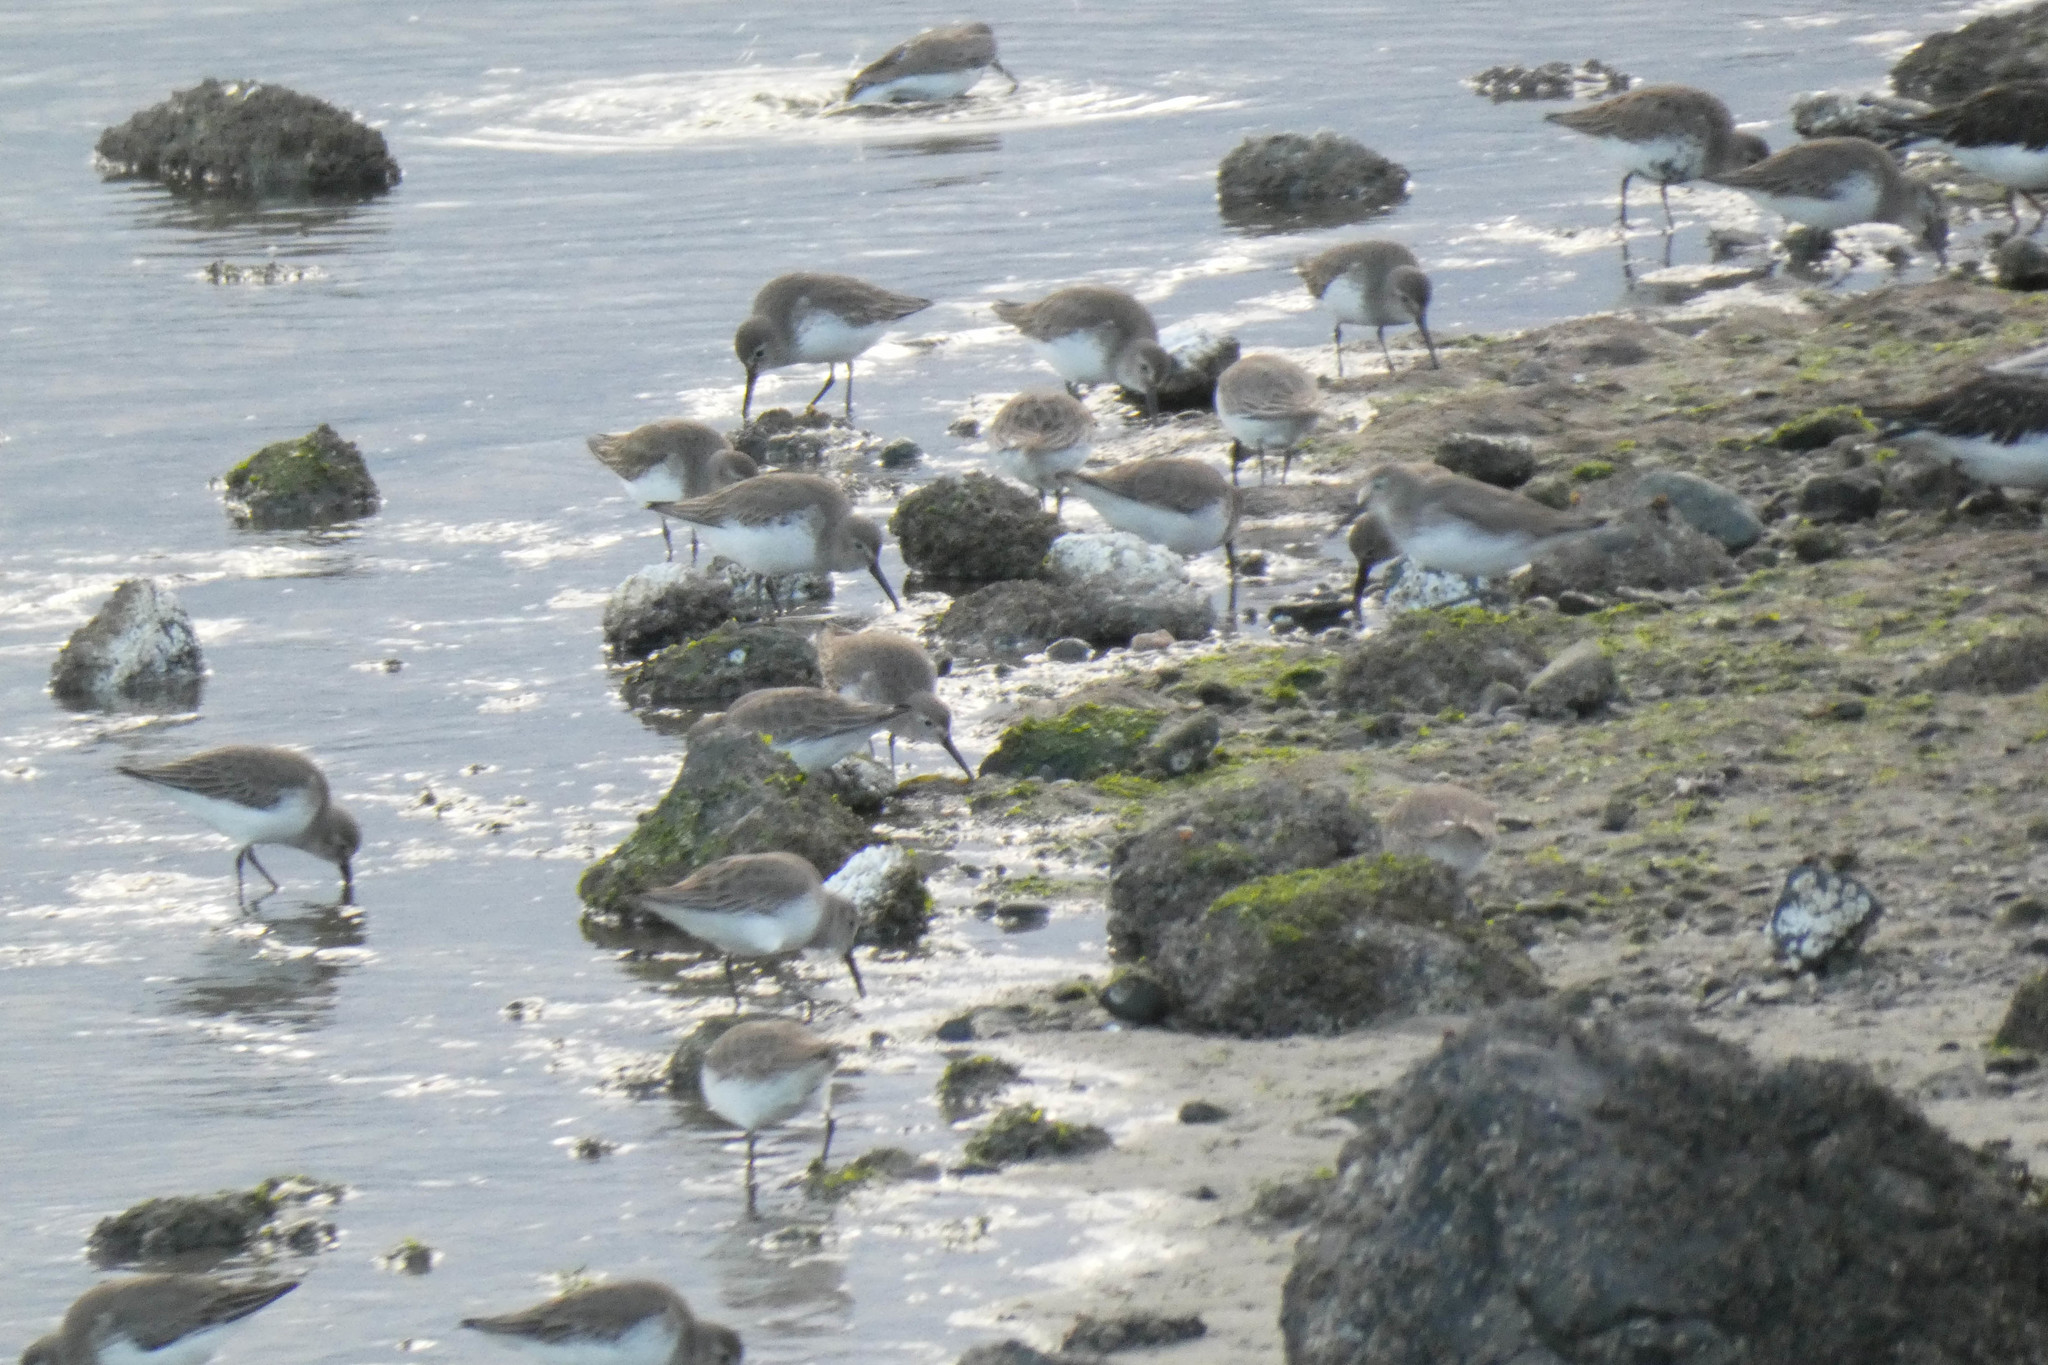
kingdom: Animalia
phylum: Chordata
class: Aves
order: Charadriiformes
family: Scolopacidae
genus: Calidris
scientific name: Calidris alpina
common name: Dunlin
